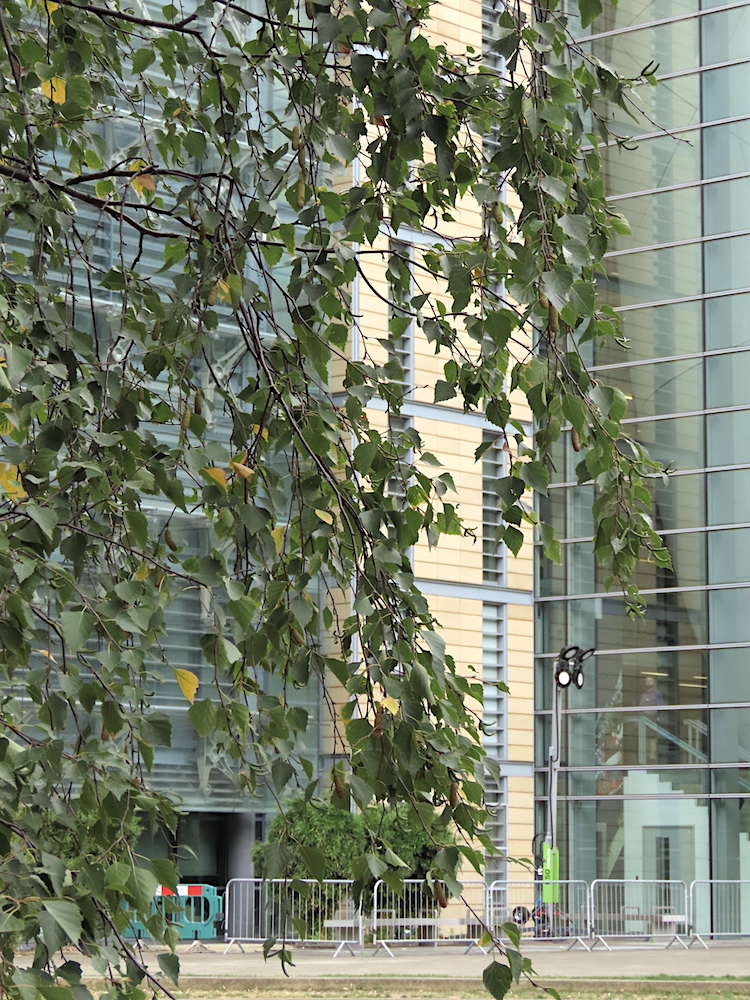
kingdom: Plantae
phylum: Tracheophyta
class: Magnoliopsida
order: Fagales
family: Betulaceae
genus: Betula
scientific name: Betula pendula
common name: Silver birch
